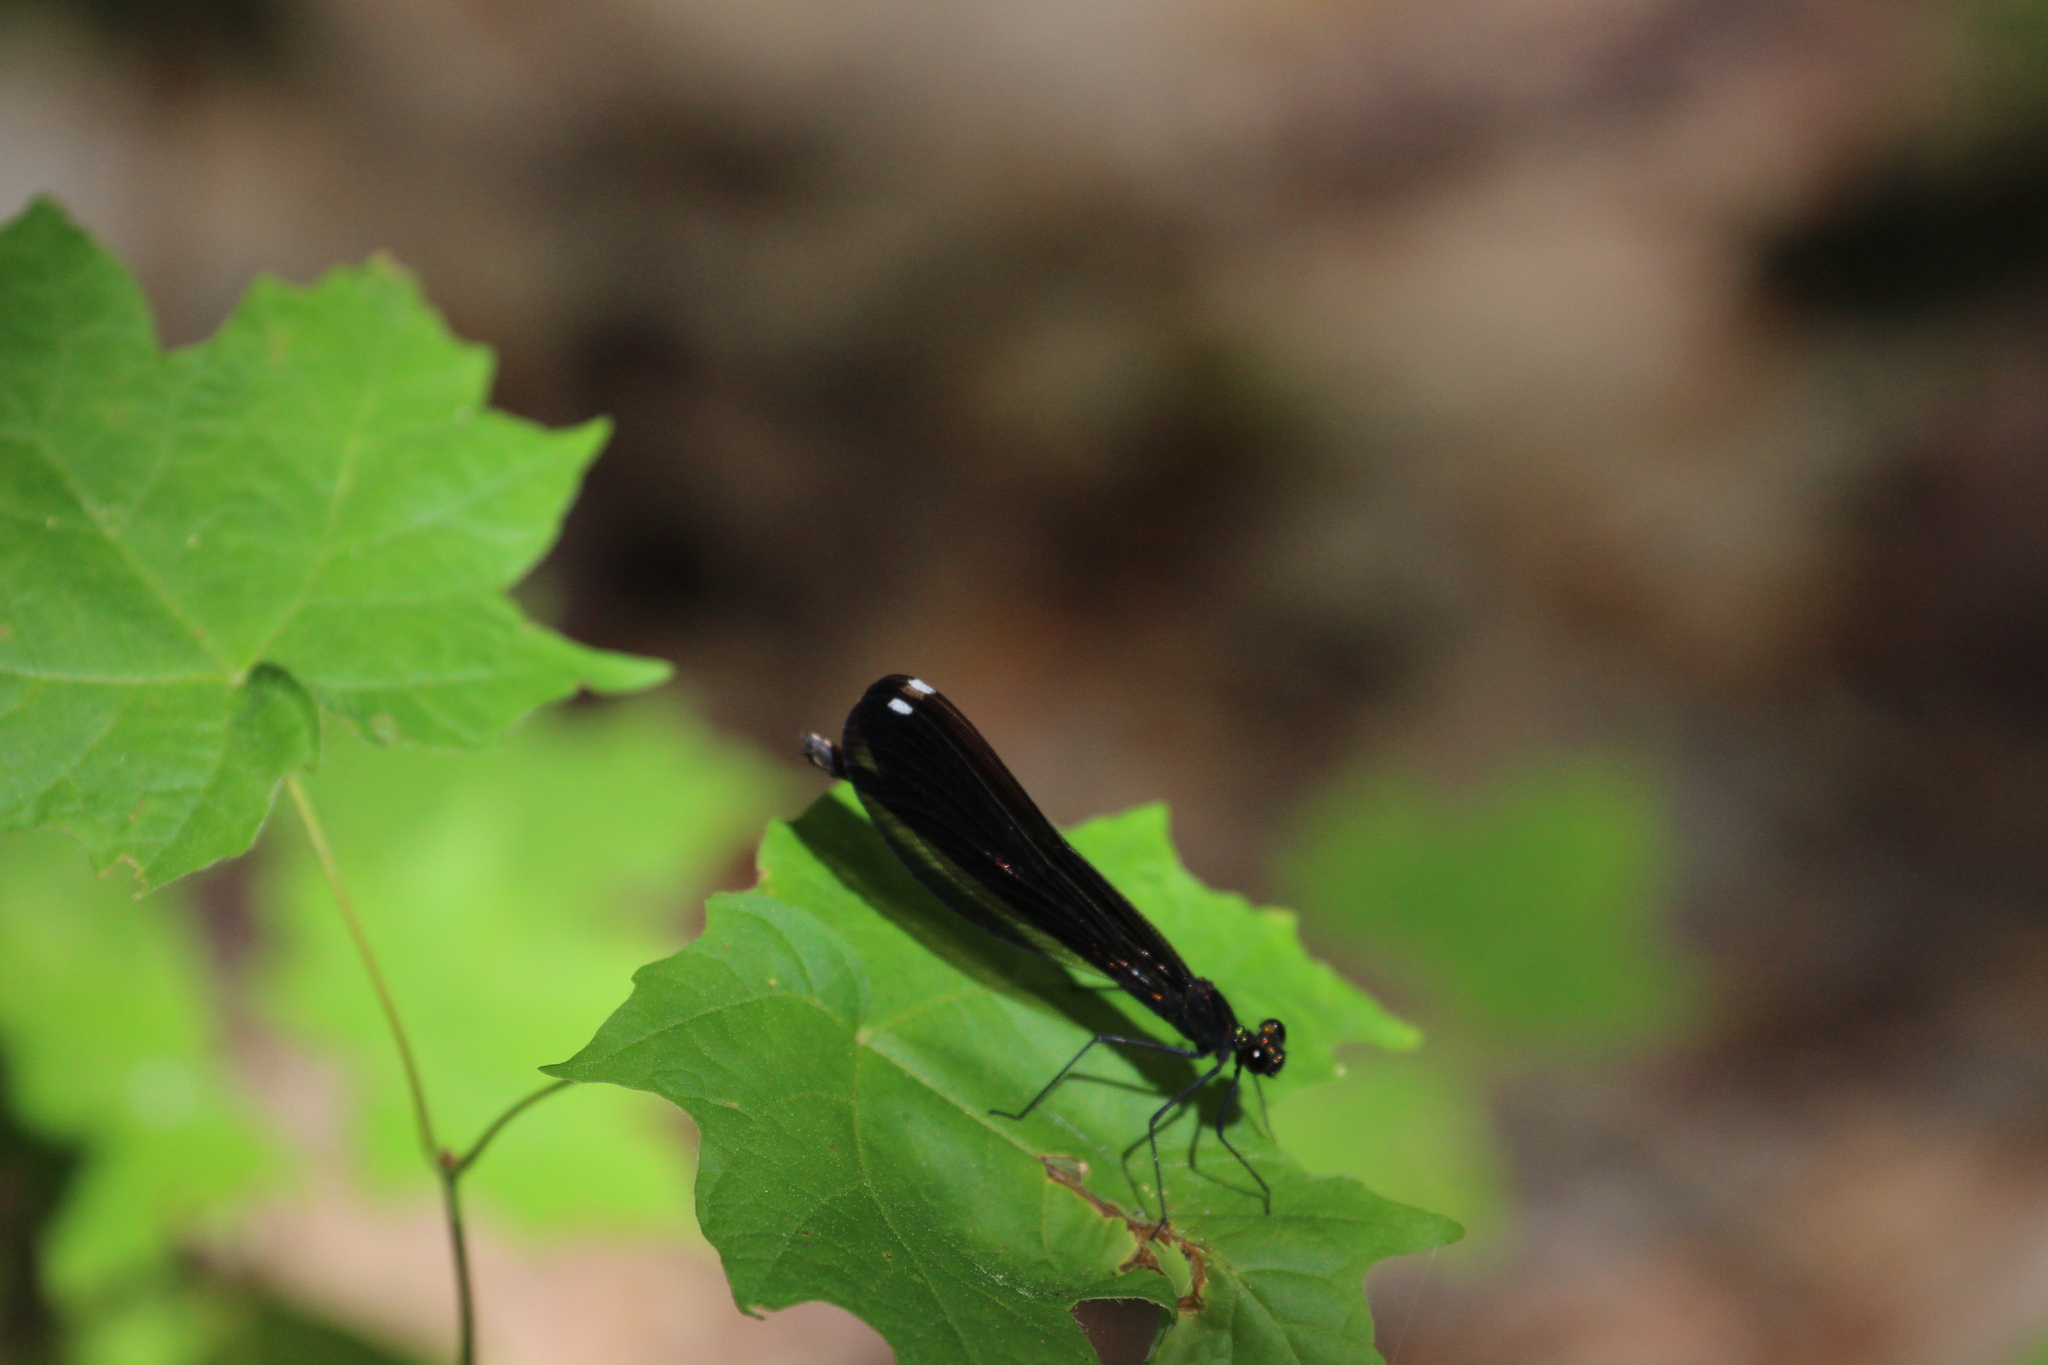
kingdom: Animalia
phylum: Arthropoda
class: Insecta
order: Odonata
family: Calopterygidae
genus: Calopteryx
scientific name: Calopteryx maculata
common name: Ebony jewelwing
